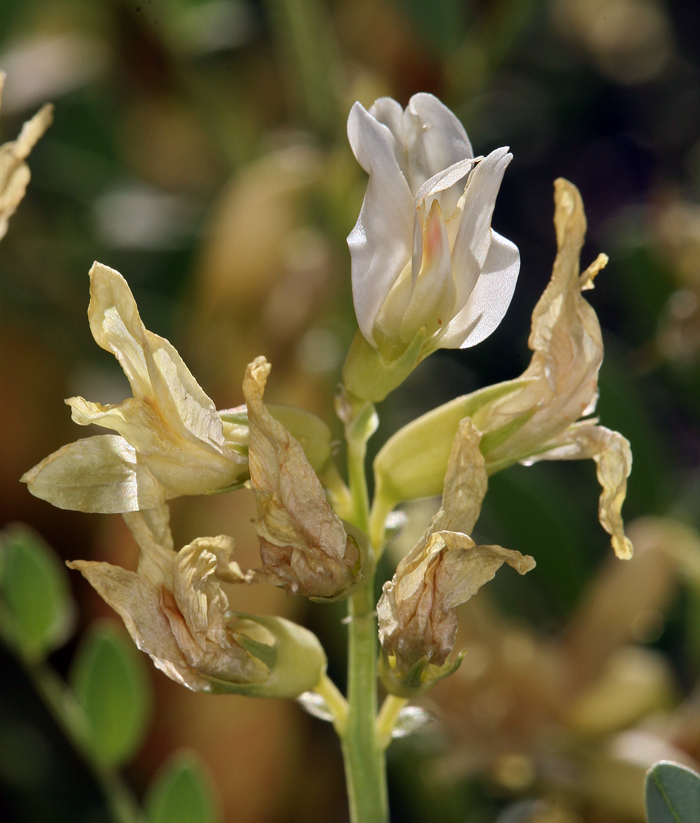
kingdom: Plantae
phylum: Tracheophyta
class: Magnoliopsida
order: Fabales
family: Fabaceae
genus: Astragalus
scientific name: Astragalus oophorus
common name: Egg milkvetch
